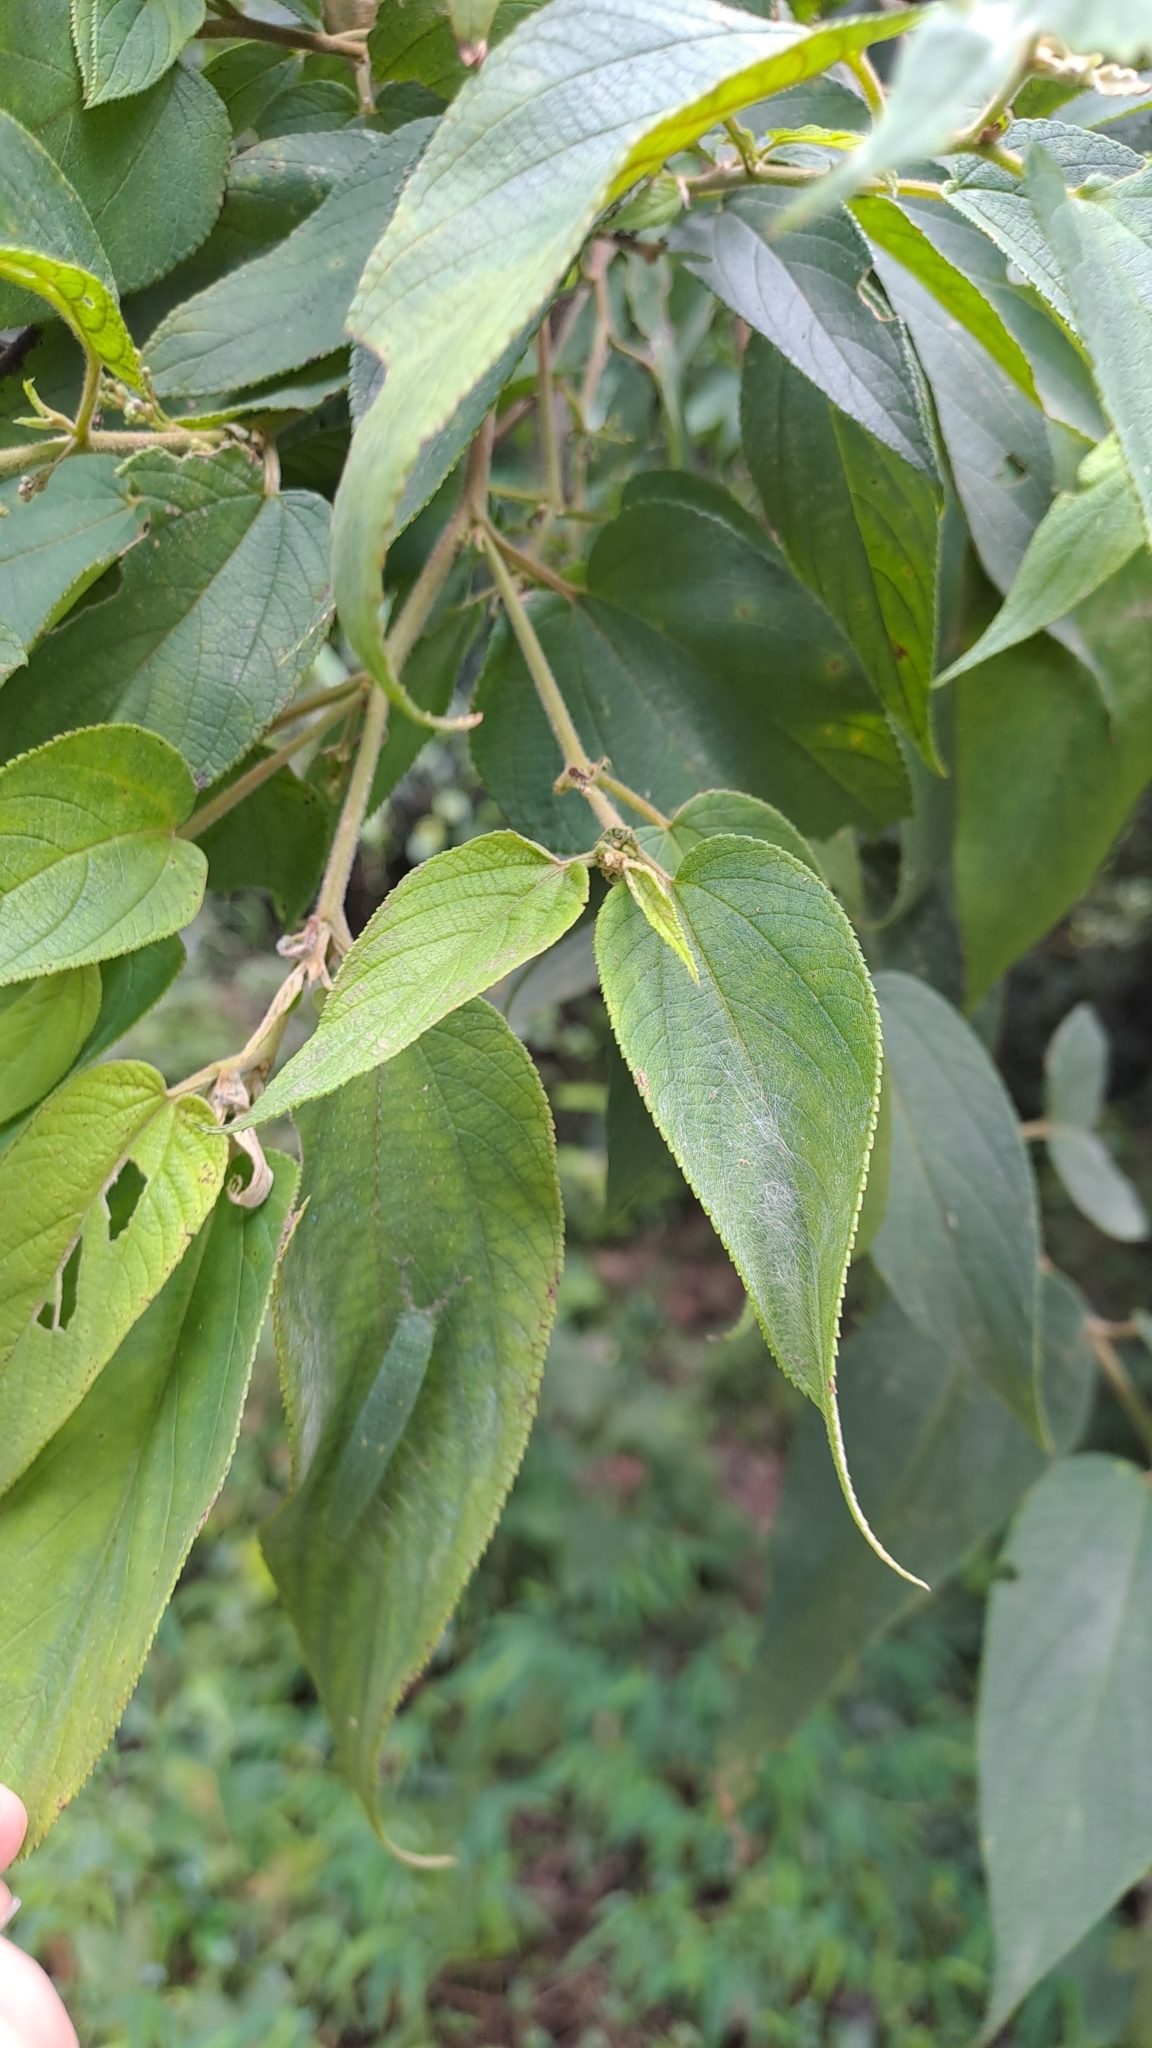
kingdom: Plantae
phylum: Tracheophyta
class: Magnoliopsida
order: Rosales
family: Cannabaceae
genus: Trema
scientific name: Trema tomentosum
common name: Peach-leaf-poisonbush
